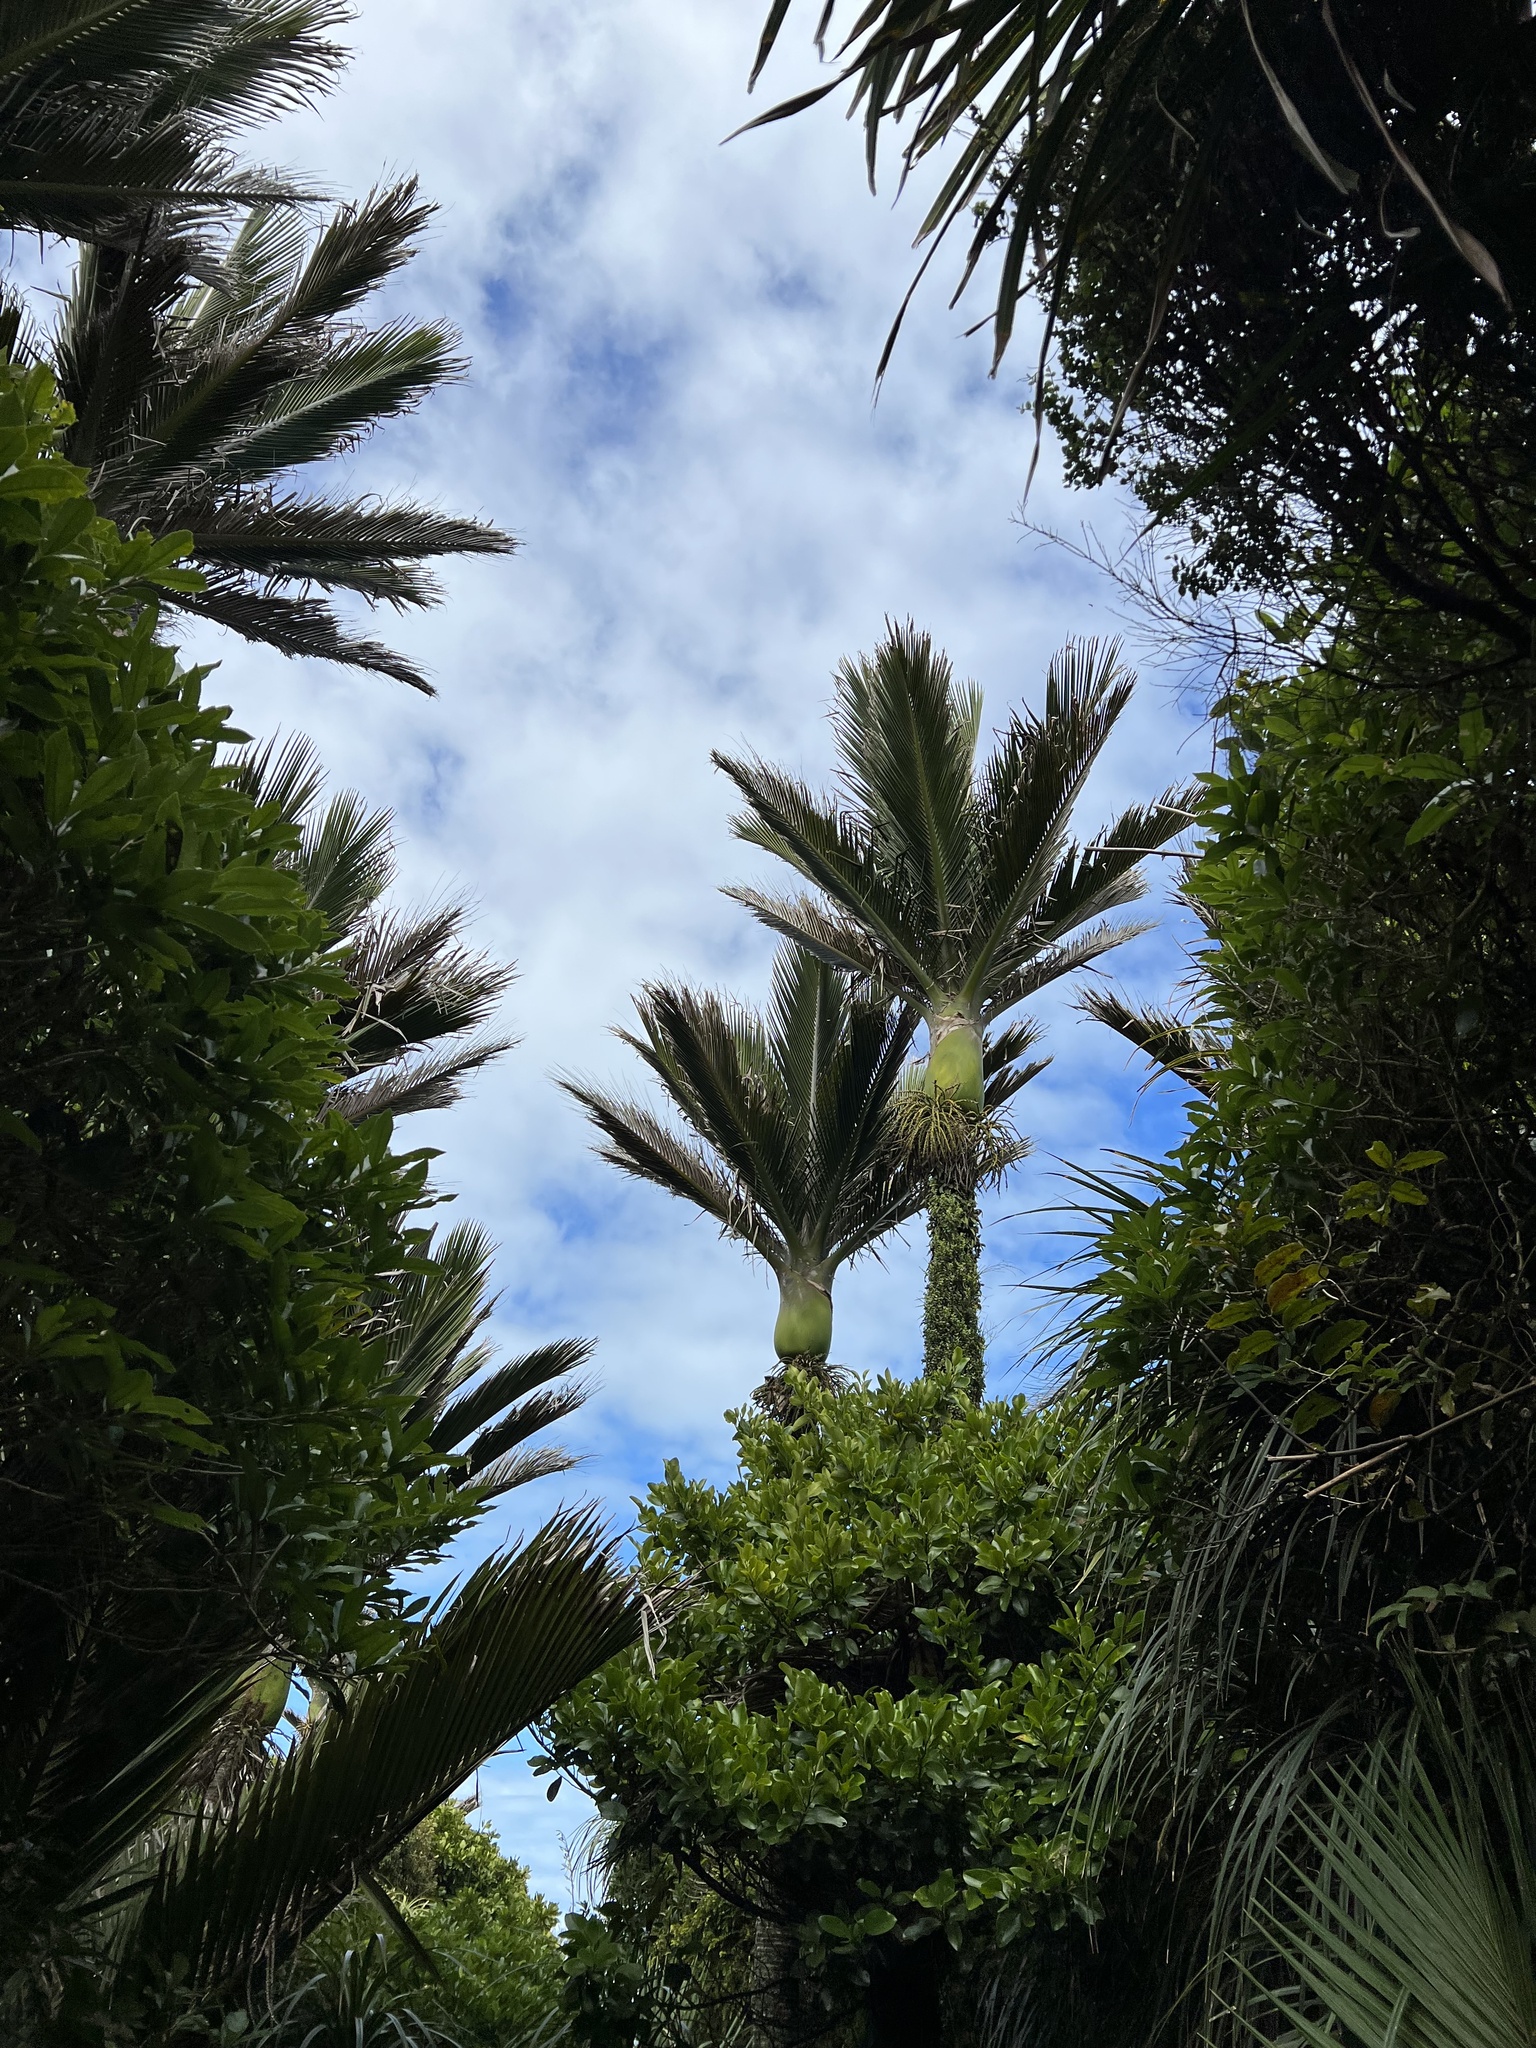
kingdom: Plantae
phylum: Tracheophyta
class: Liliopsida
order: Arecales
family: Arecaceae
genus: Rhopalostylis
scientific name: Rhopalostylis sapida
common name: Feather-duster palm
